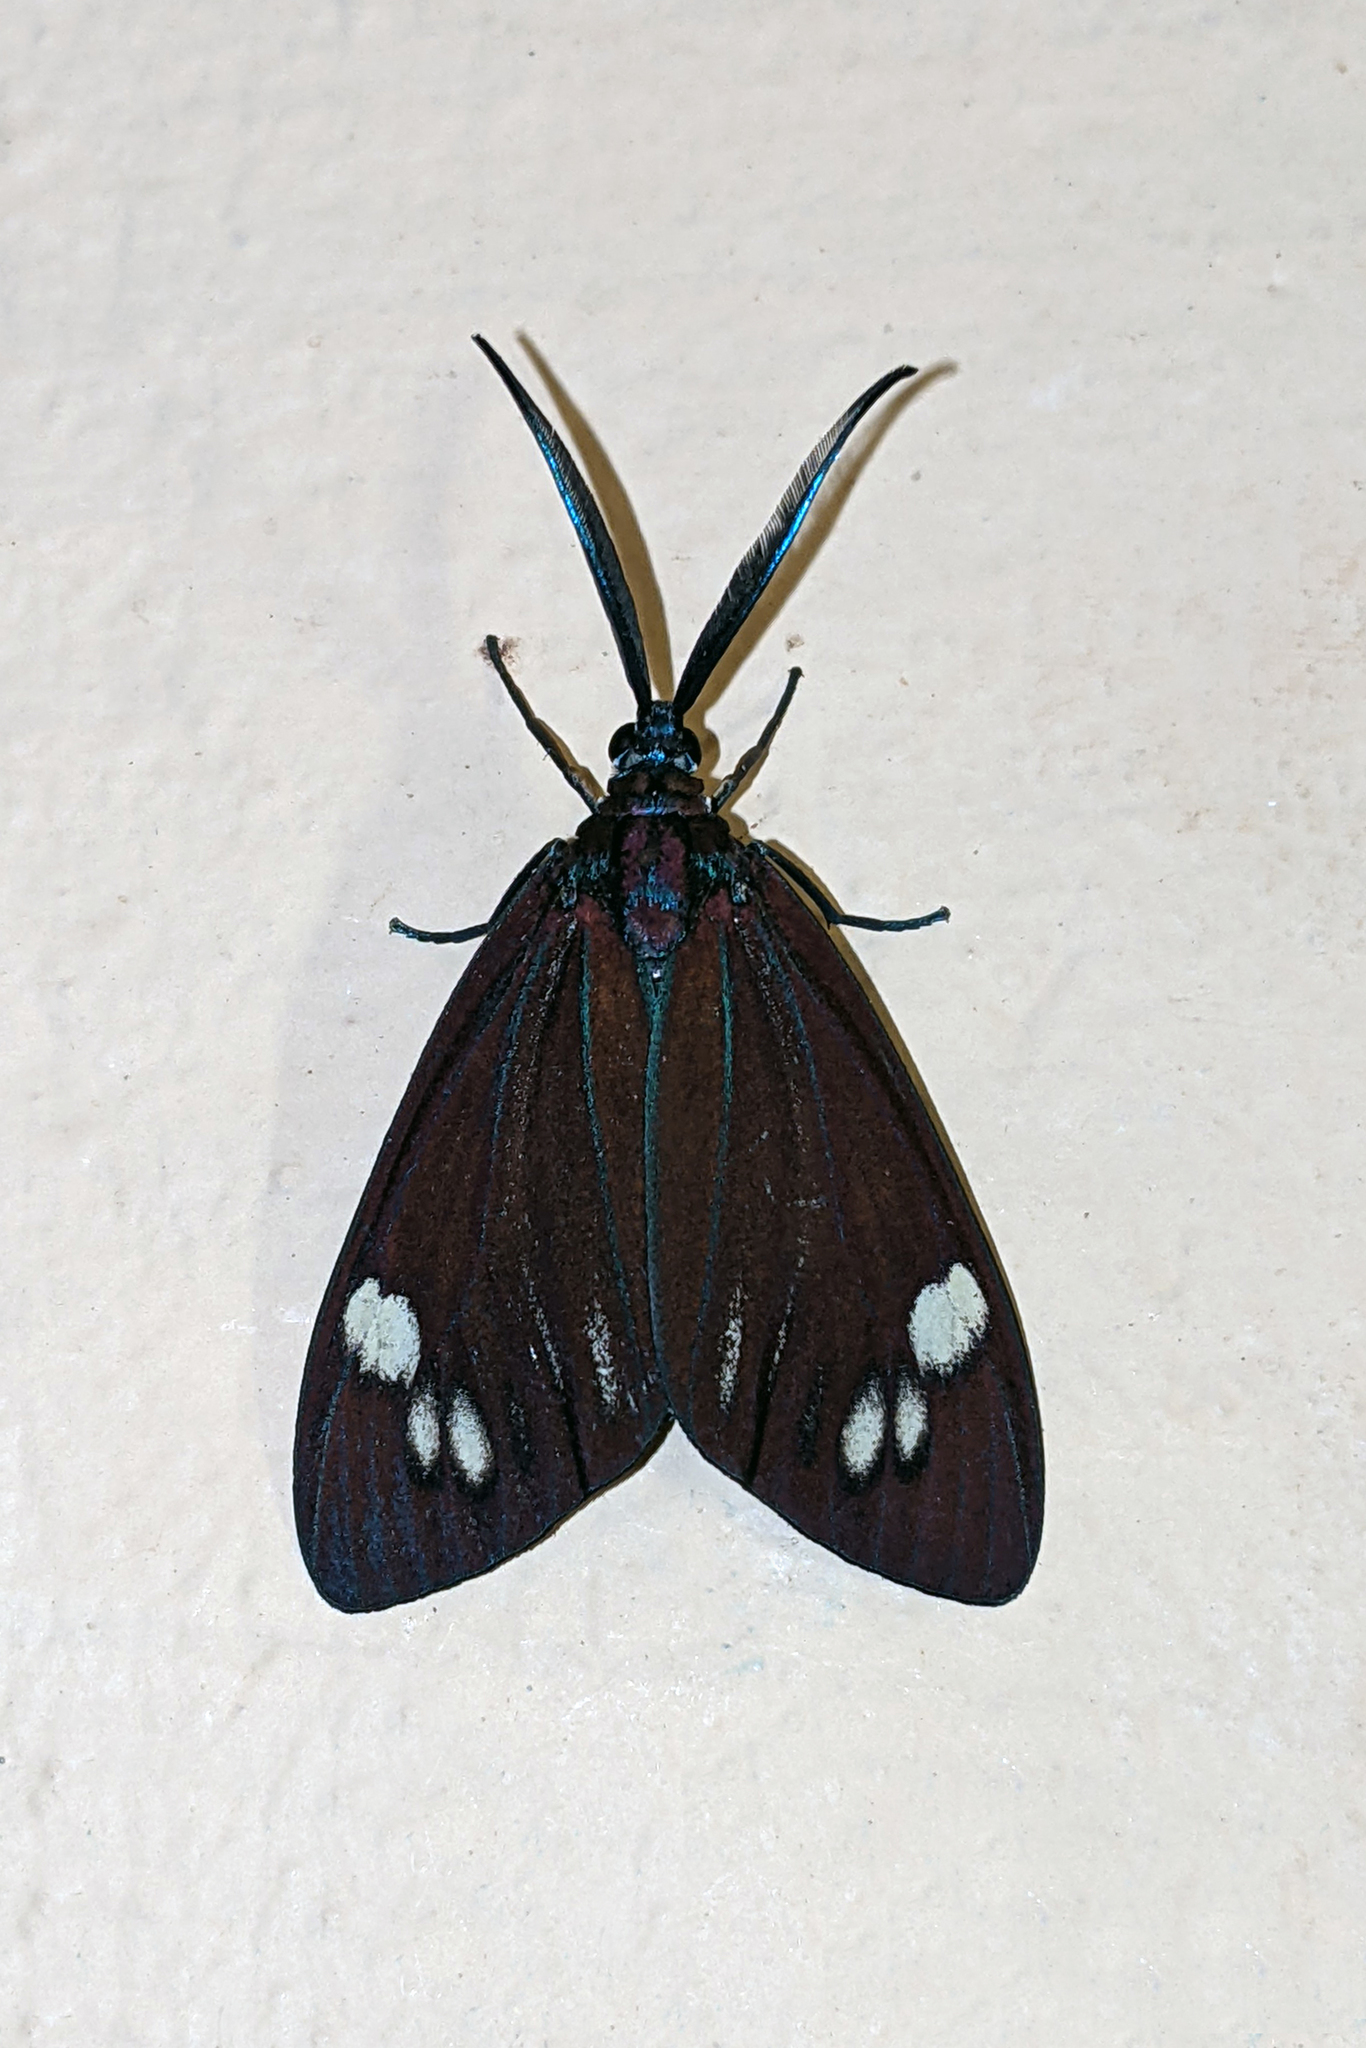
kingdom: Animalia
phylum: Arthropoda
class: Insecta
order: Lepidoptera
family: Zygaenidae
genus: Cyclosia
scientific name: Cyclosia papilionaris
